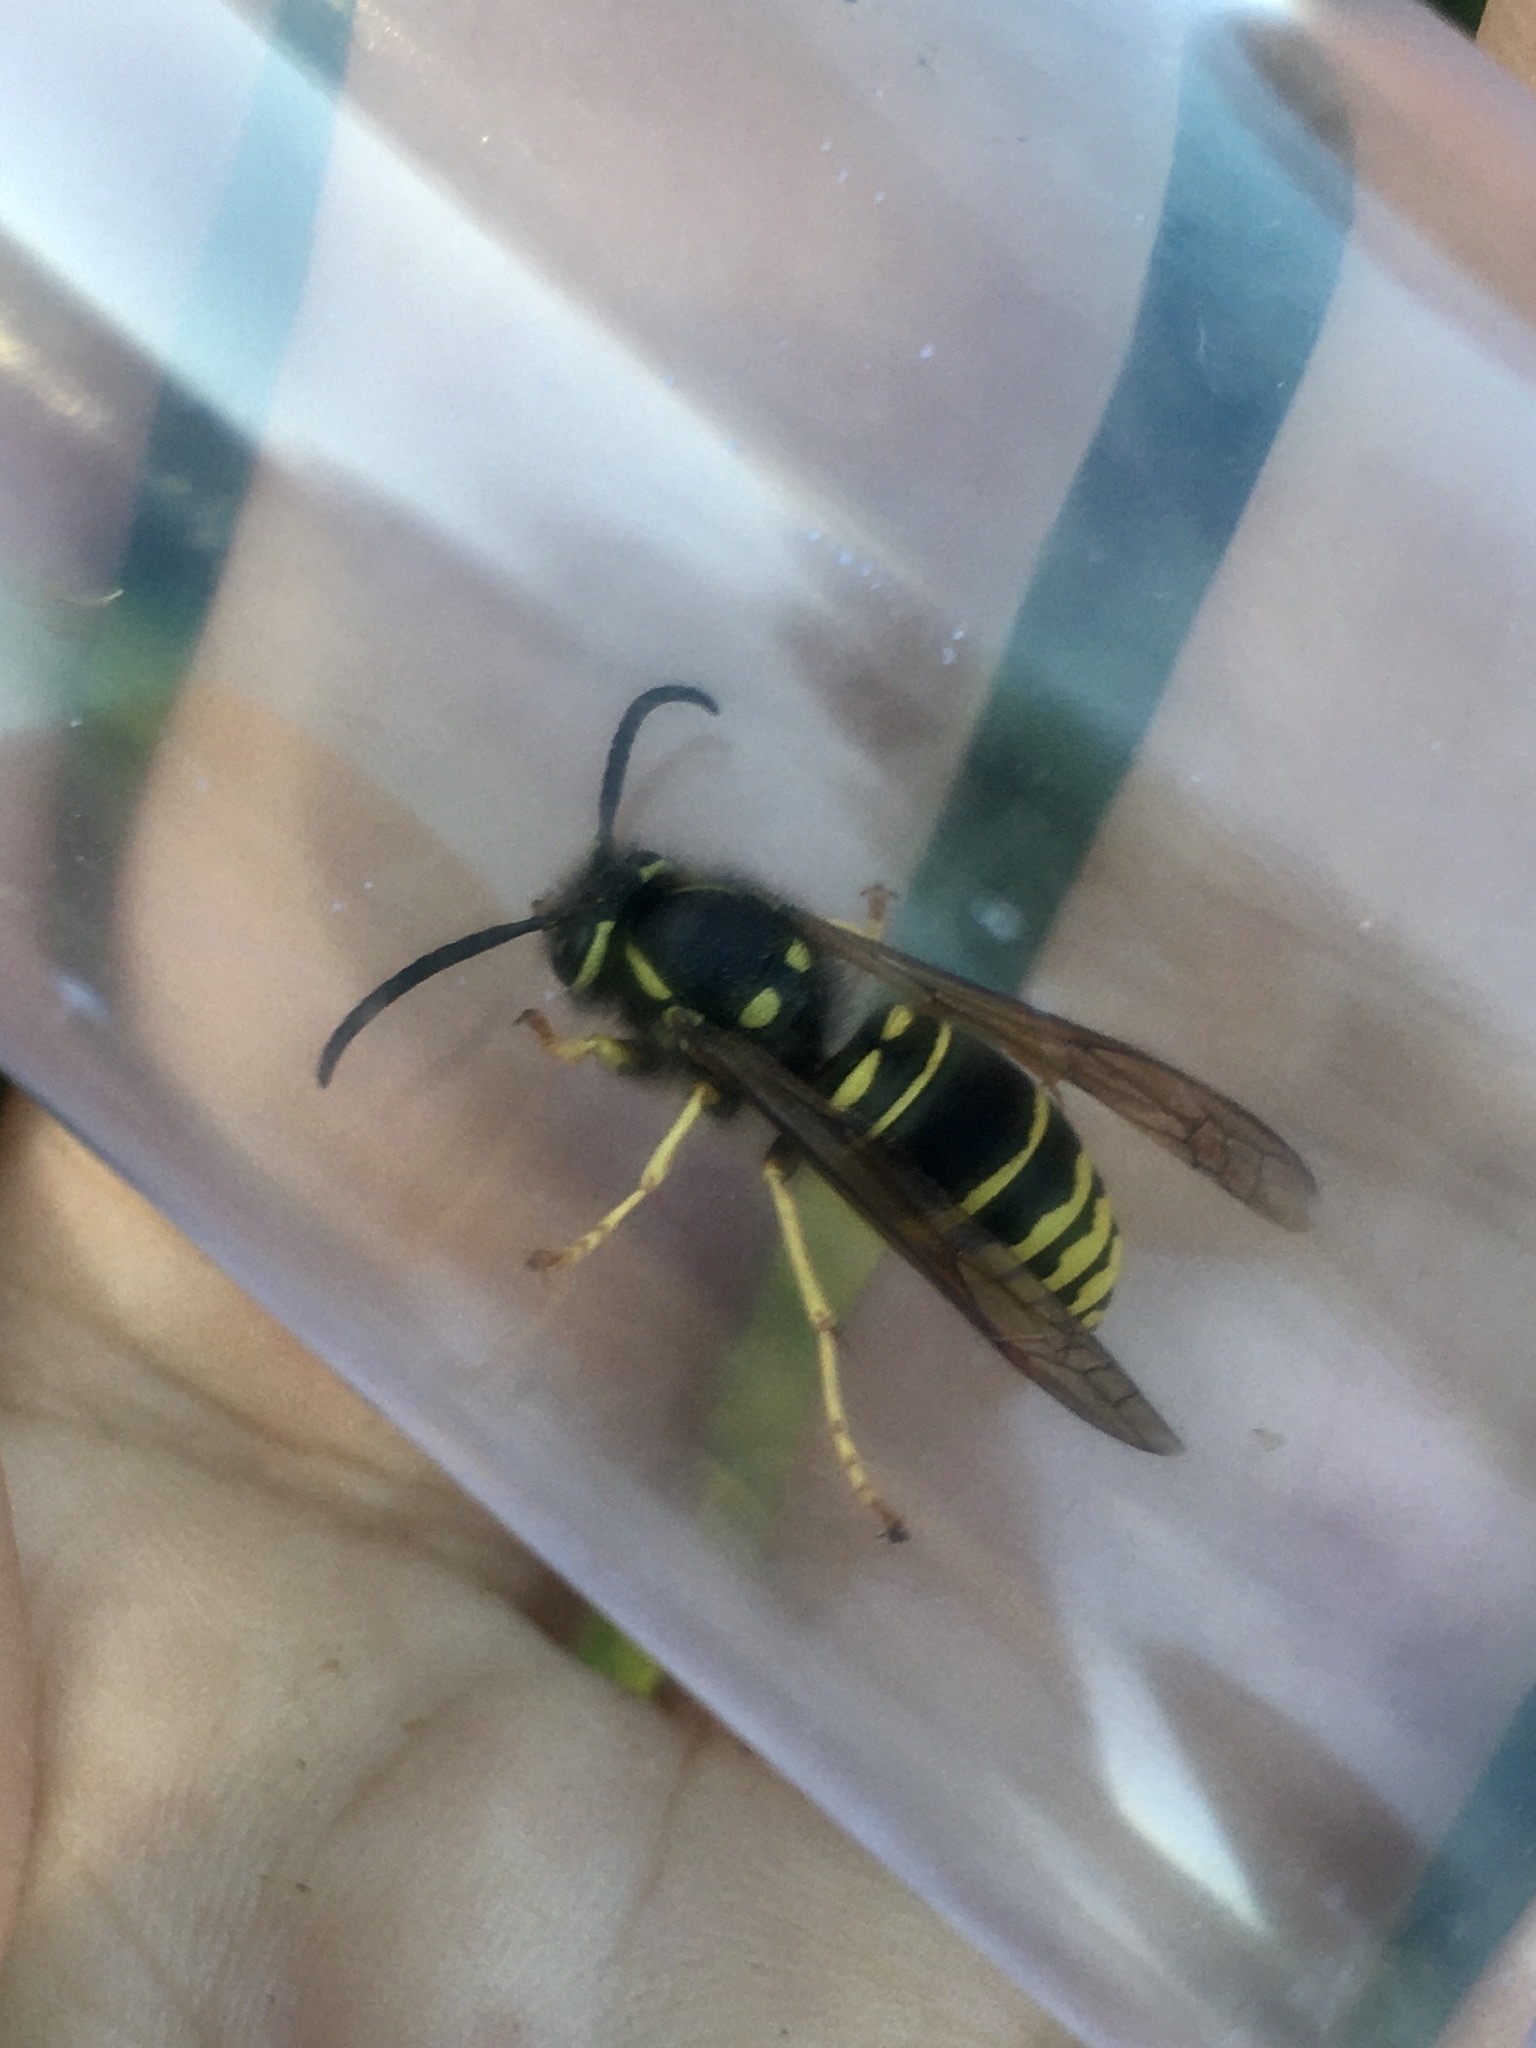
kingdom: Animalia
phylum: Arthropoda
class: Insecta
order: Hymenoptera
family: Vespidae
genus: Vespula
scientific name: Vespula vidua
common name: Widow yellowjacket
